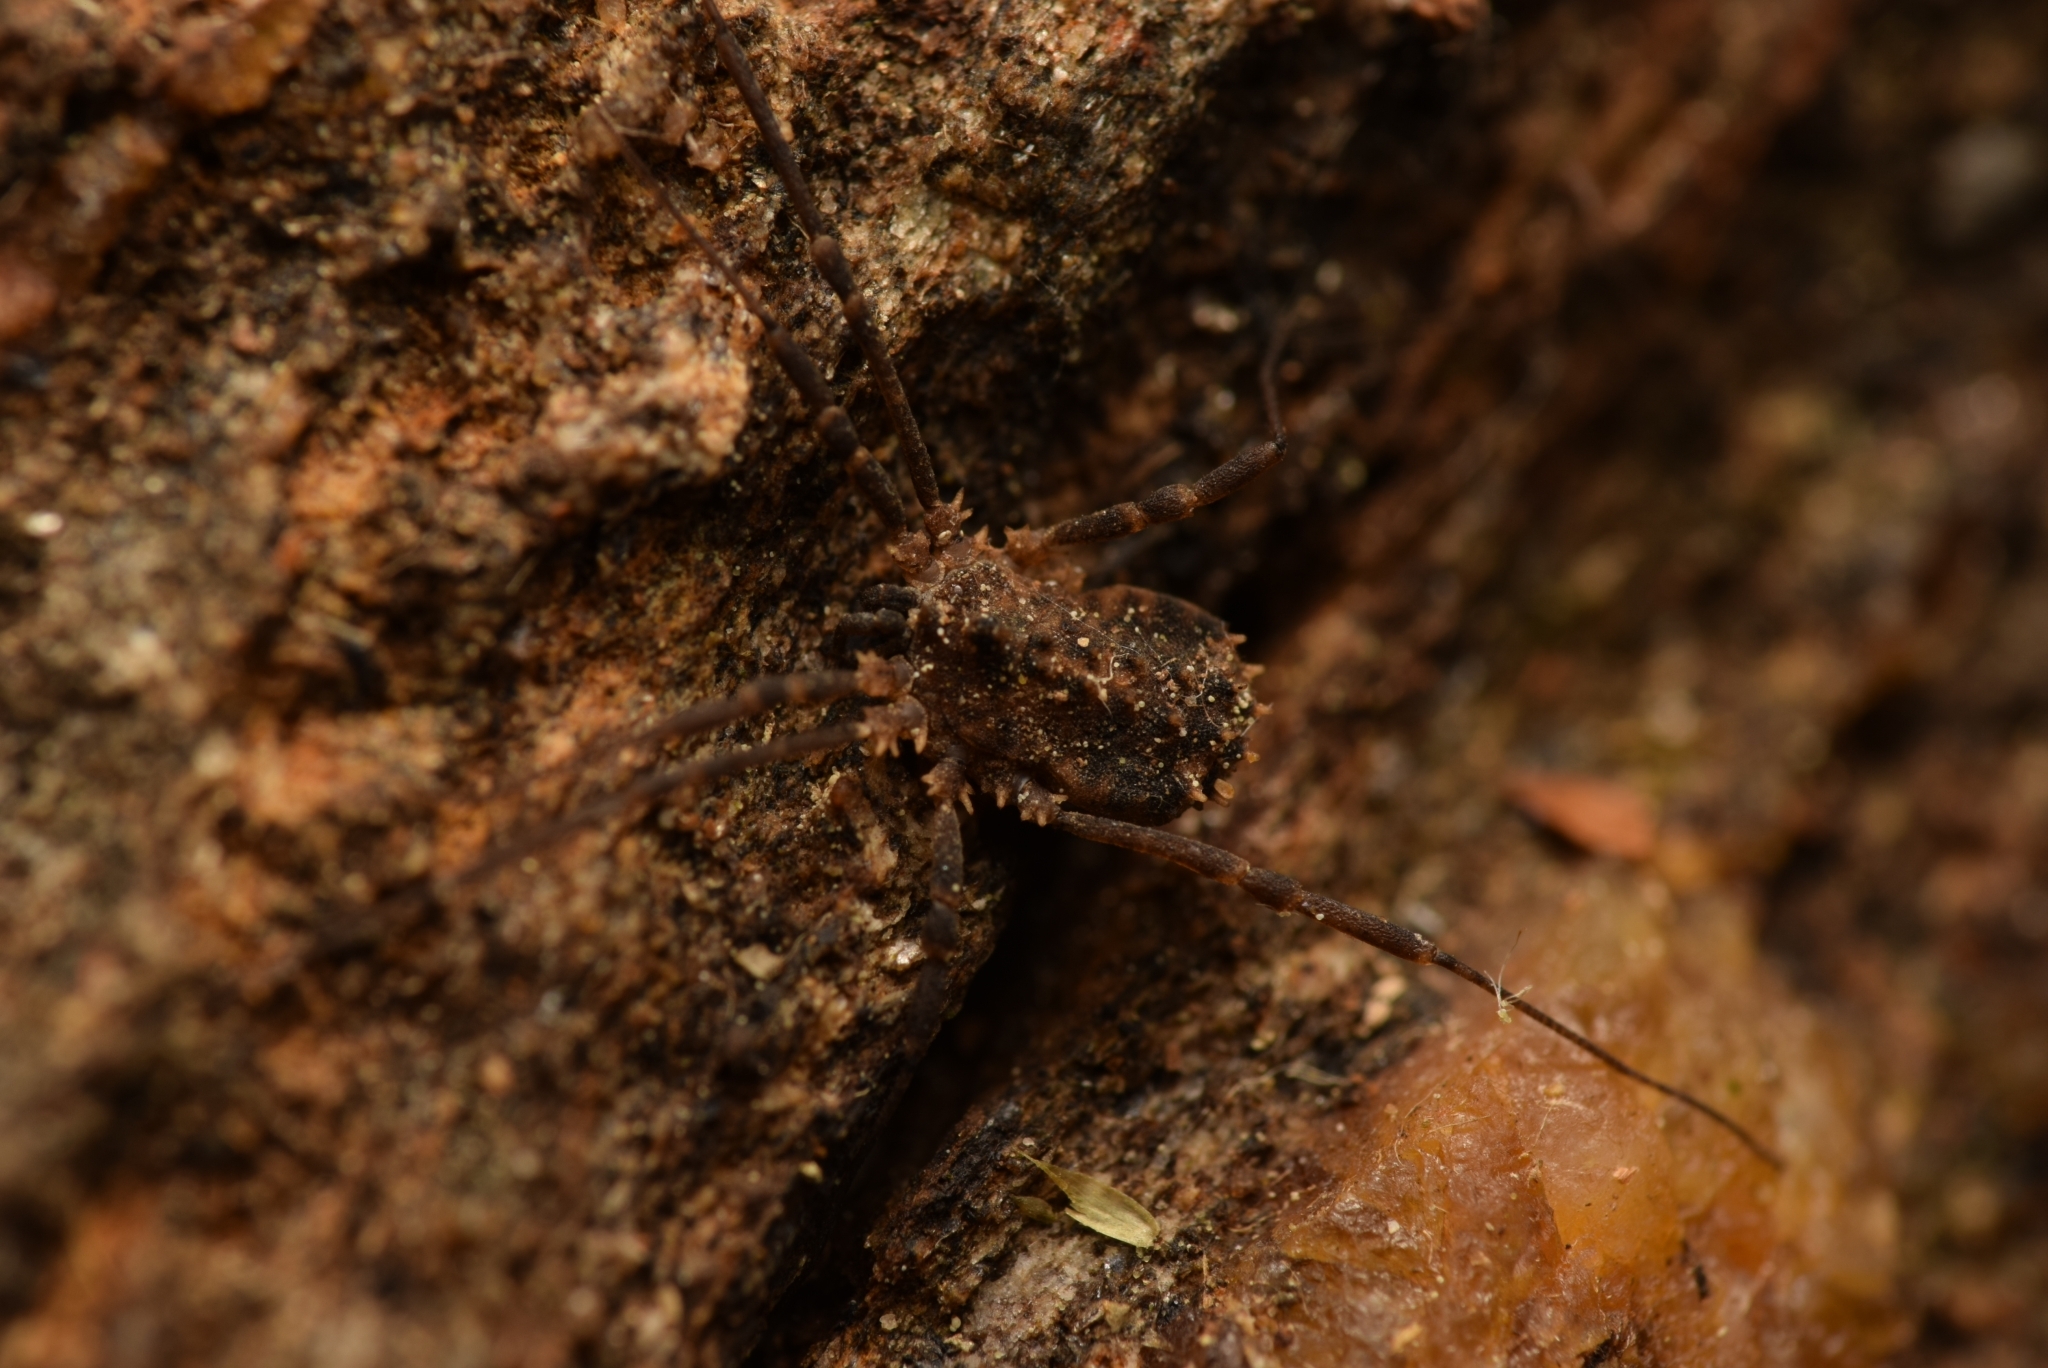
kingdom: Animalia
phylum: Arthropoda
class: Arachnida
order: Opiliones
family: Sclerosomatidae
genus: Homalenotus
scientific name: Homalenotus remyi
